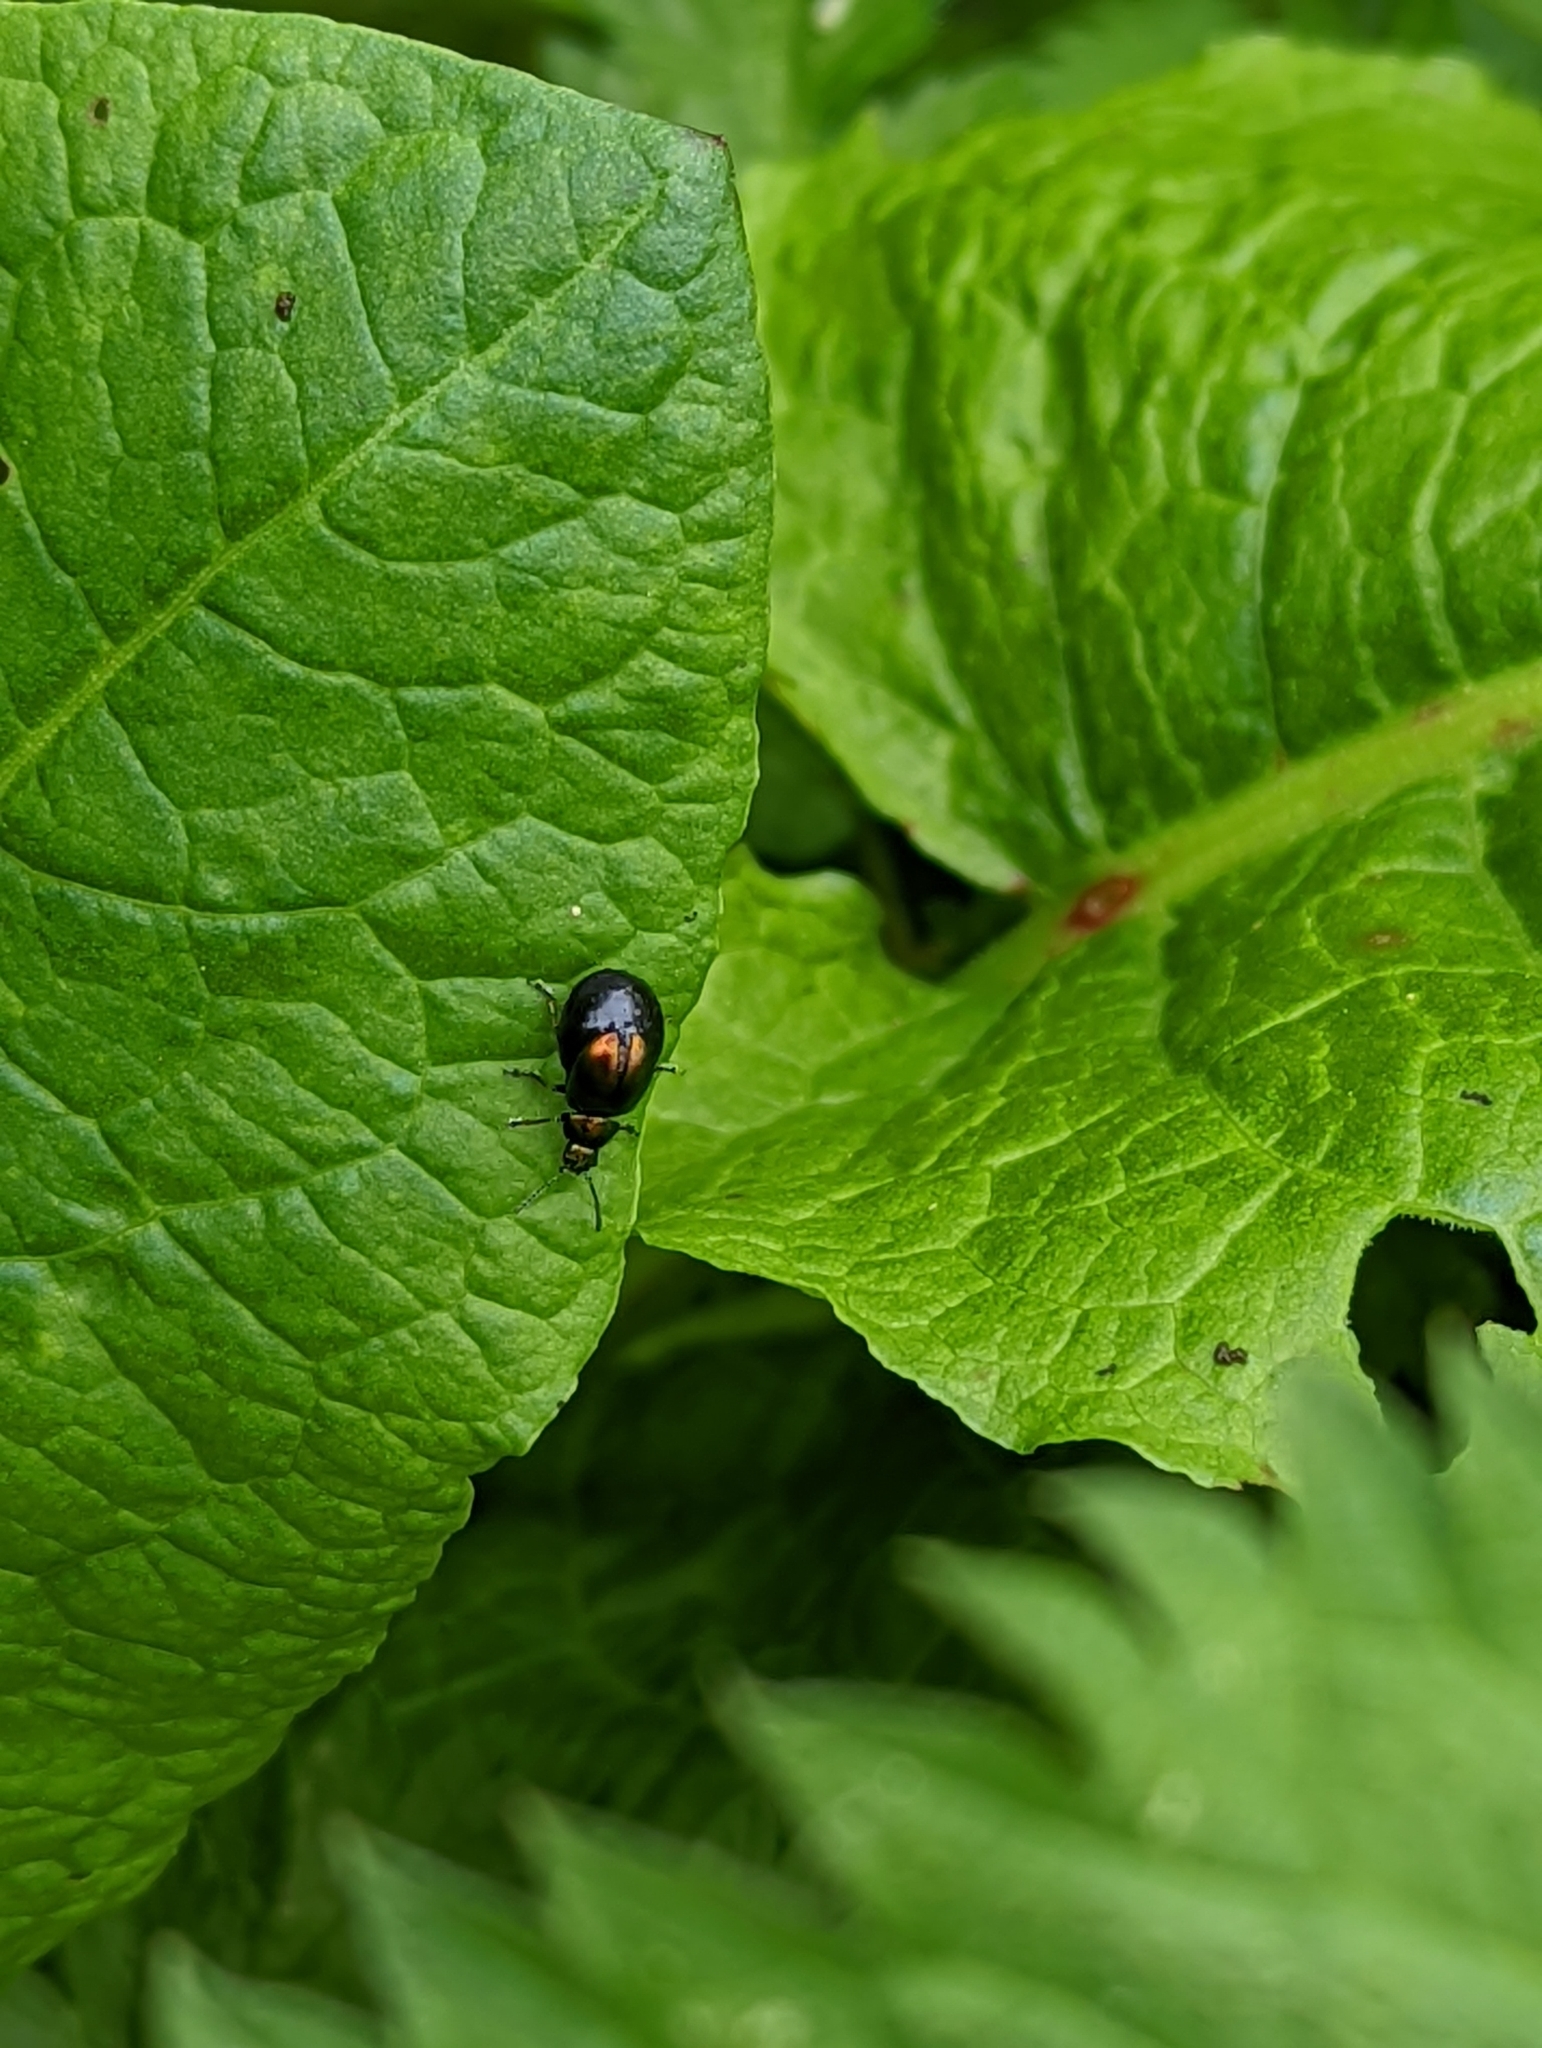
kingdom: Animalia
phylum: Arthropoda
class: Insecta
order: Coleoptera
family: Chrysomelidae
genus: Gastrophysa
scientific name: Gastrophysa viridula
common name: Green dock beetle
